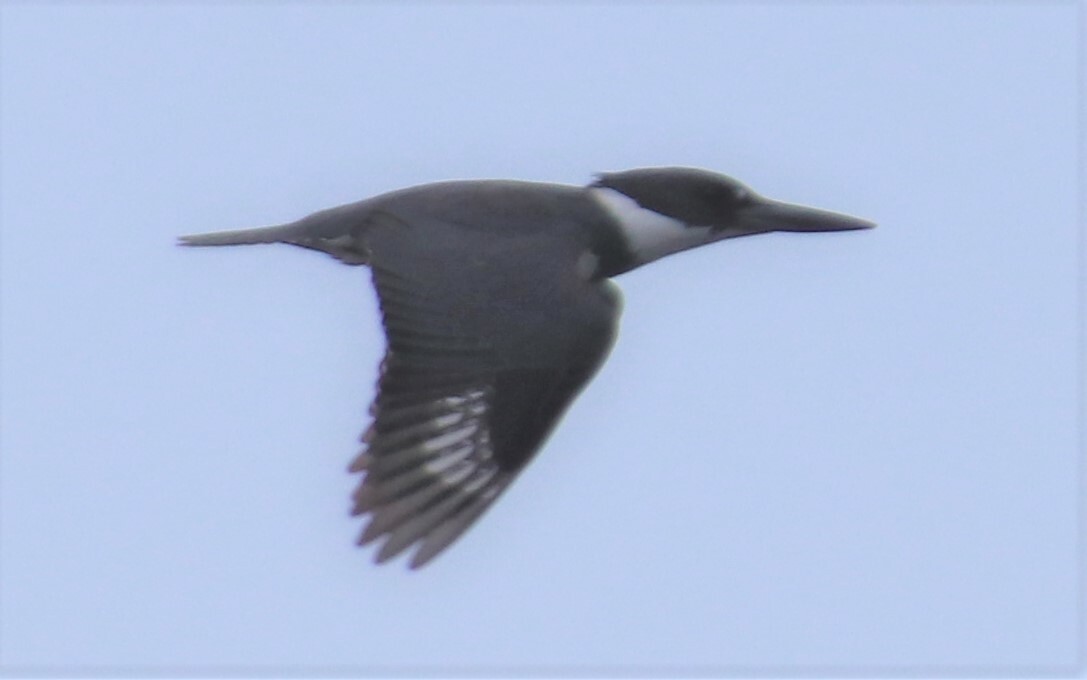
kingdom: Animalia
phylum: Chordata
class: Aves
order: Coraciiformes
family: Alcedinidae
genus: Megaceryle
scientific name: Megaceryle alcyon
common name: Belted kingfisher
